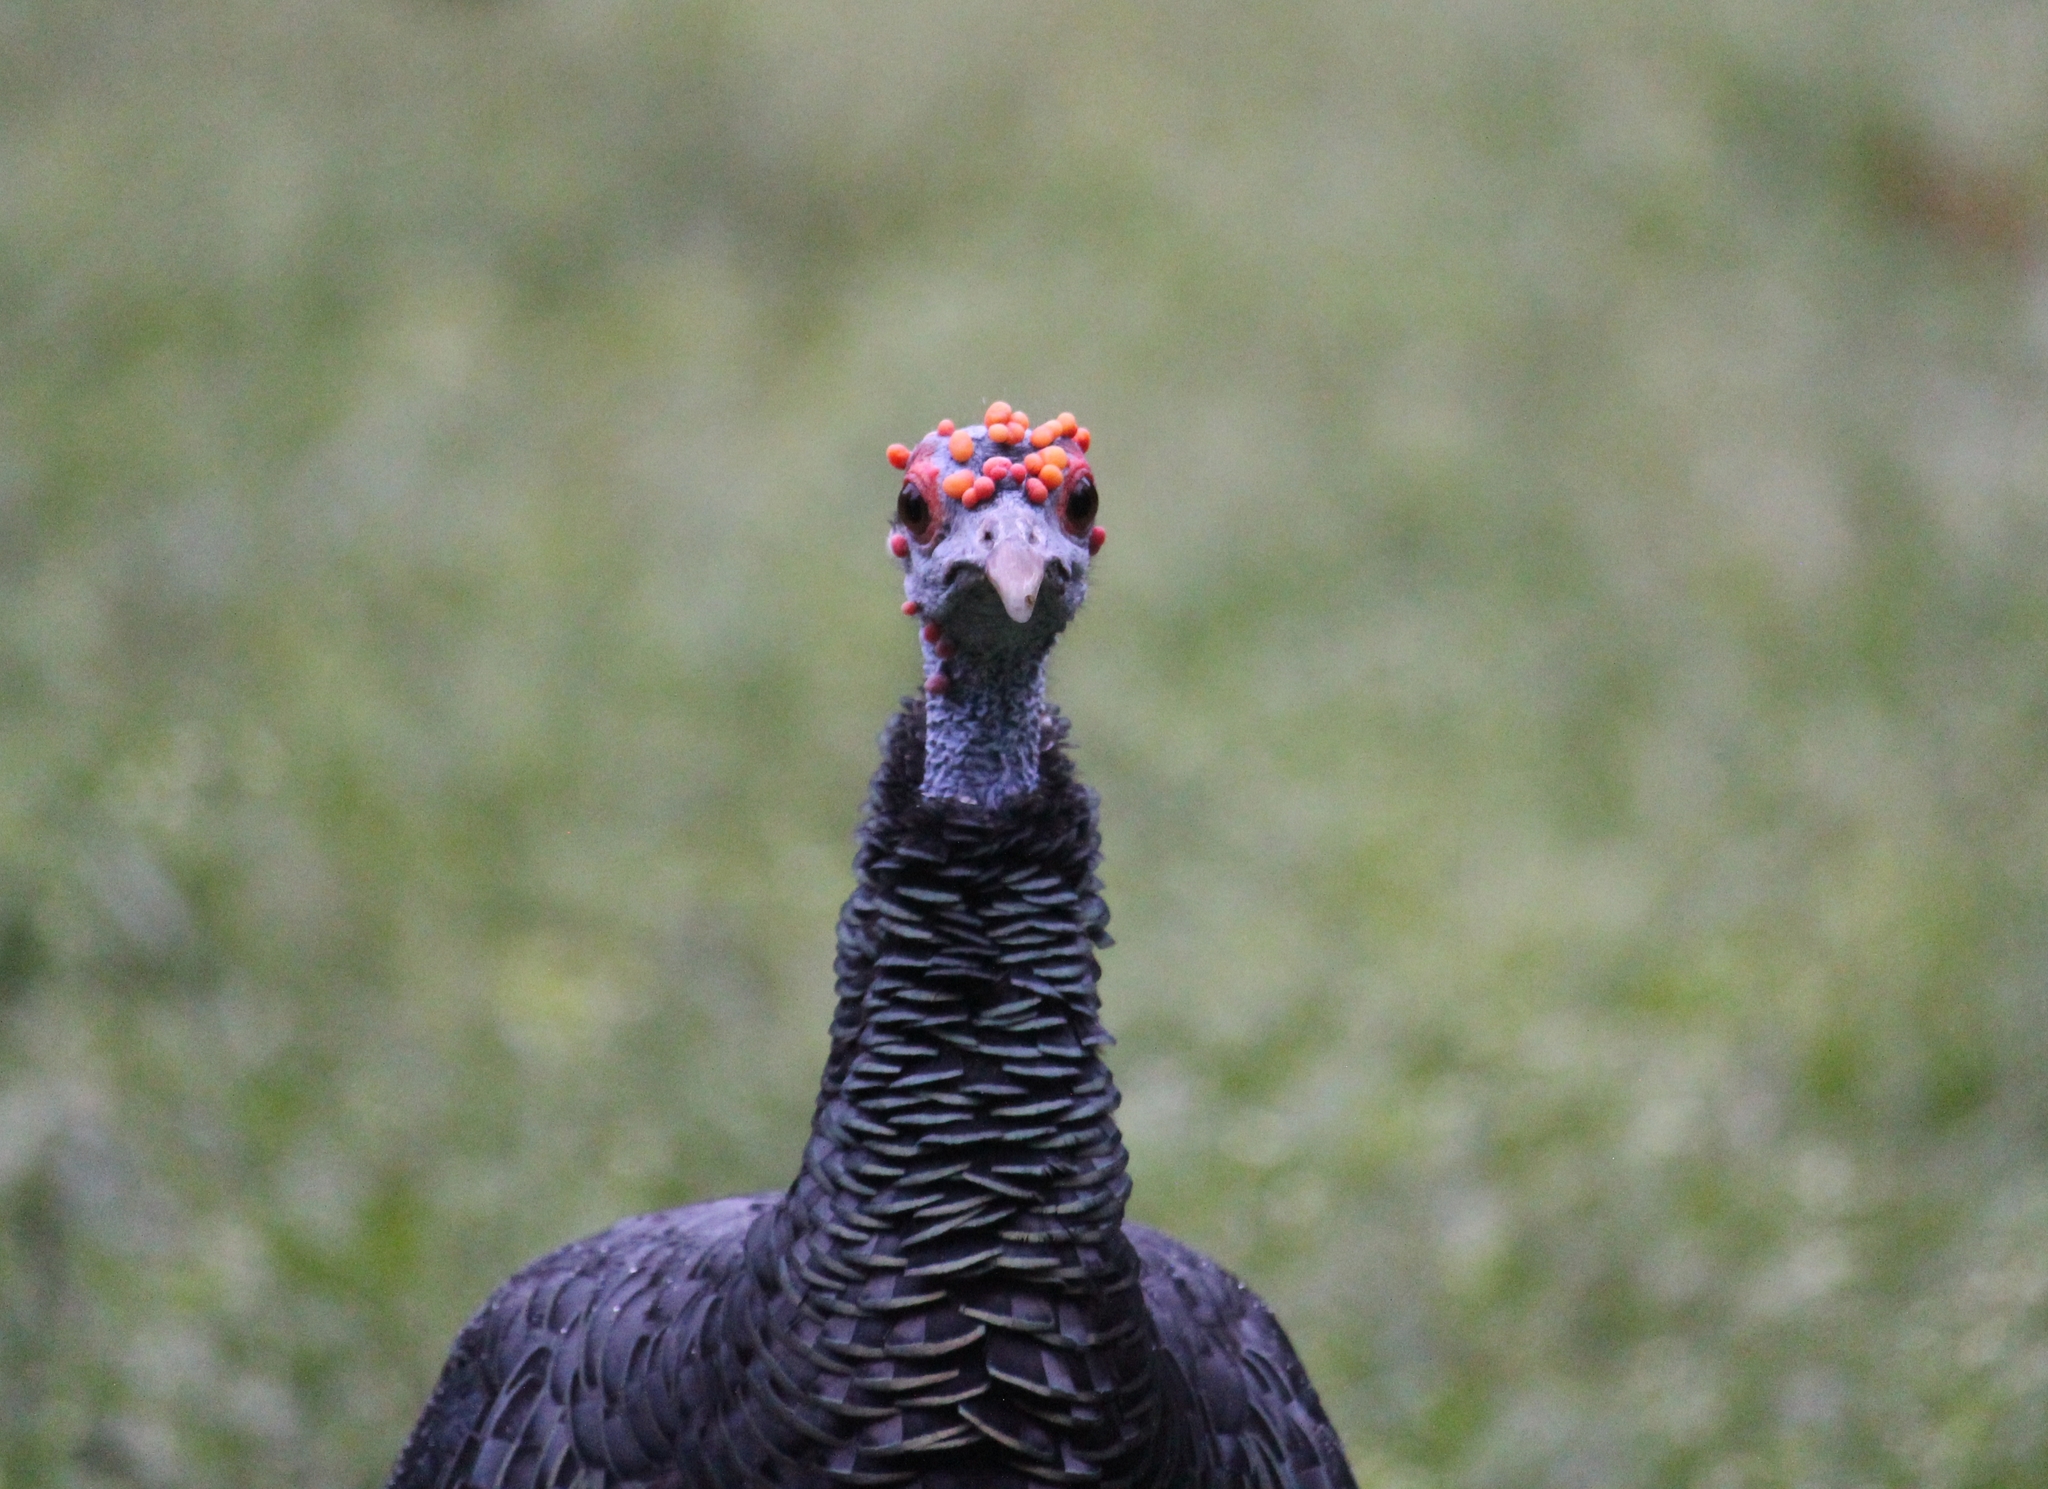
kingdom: Animalia
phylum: Chordata
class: Aves
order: Galliformes
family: Phasianidae
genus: Meleagris
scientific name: Meleagris ocellata
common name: Ocellated turkey
